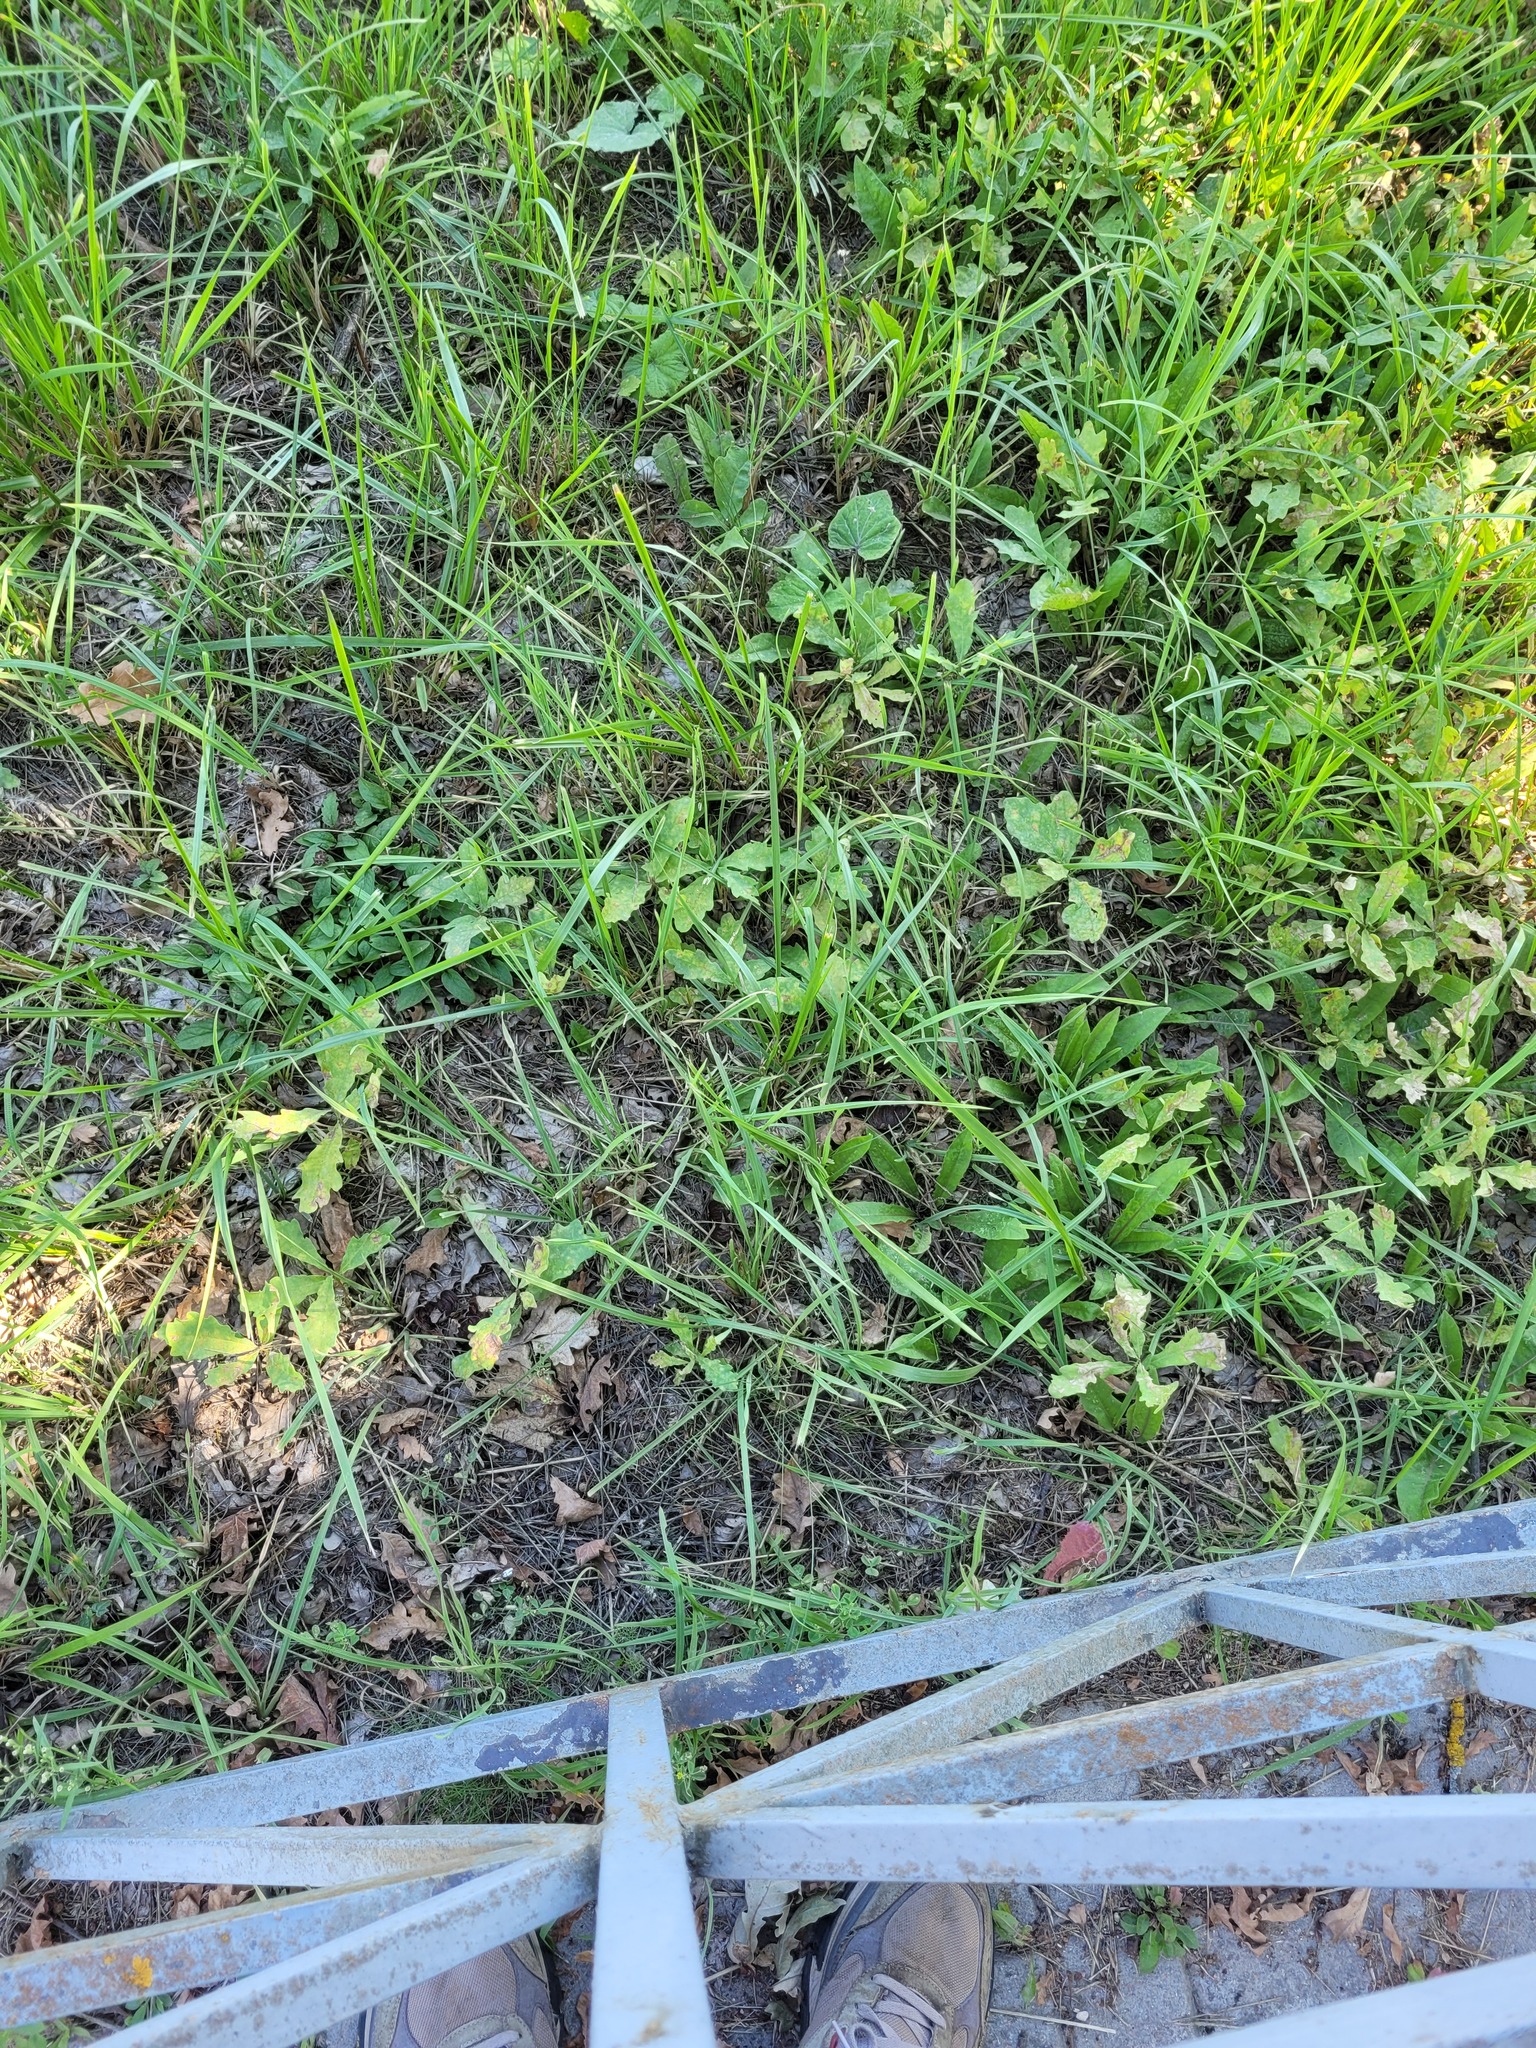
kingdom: Plantae
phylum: Tracheophyta
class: Magnoliopsida
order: Fagales
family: Fagaceae
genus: Quercus
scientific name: Quercus robur
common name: Pedunculate oak
